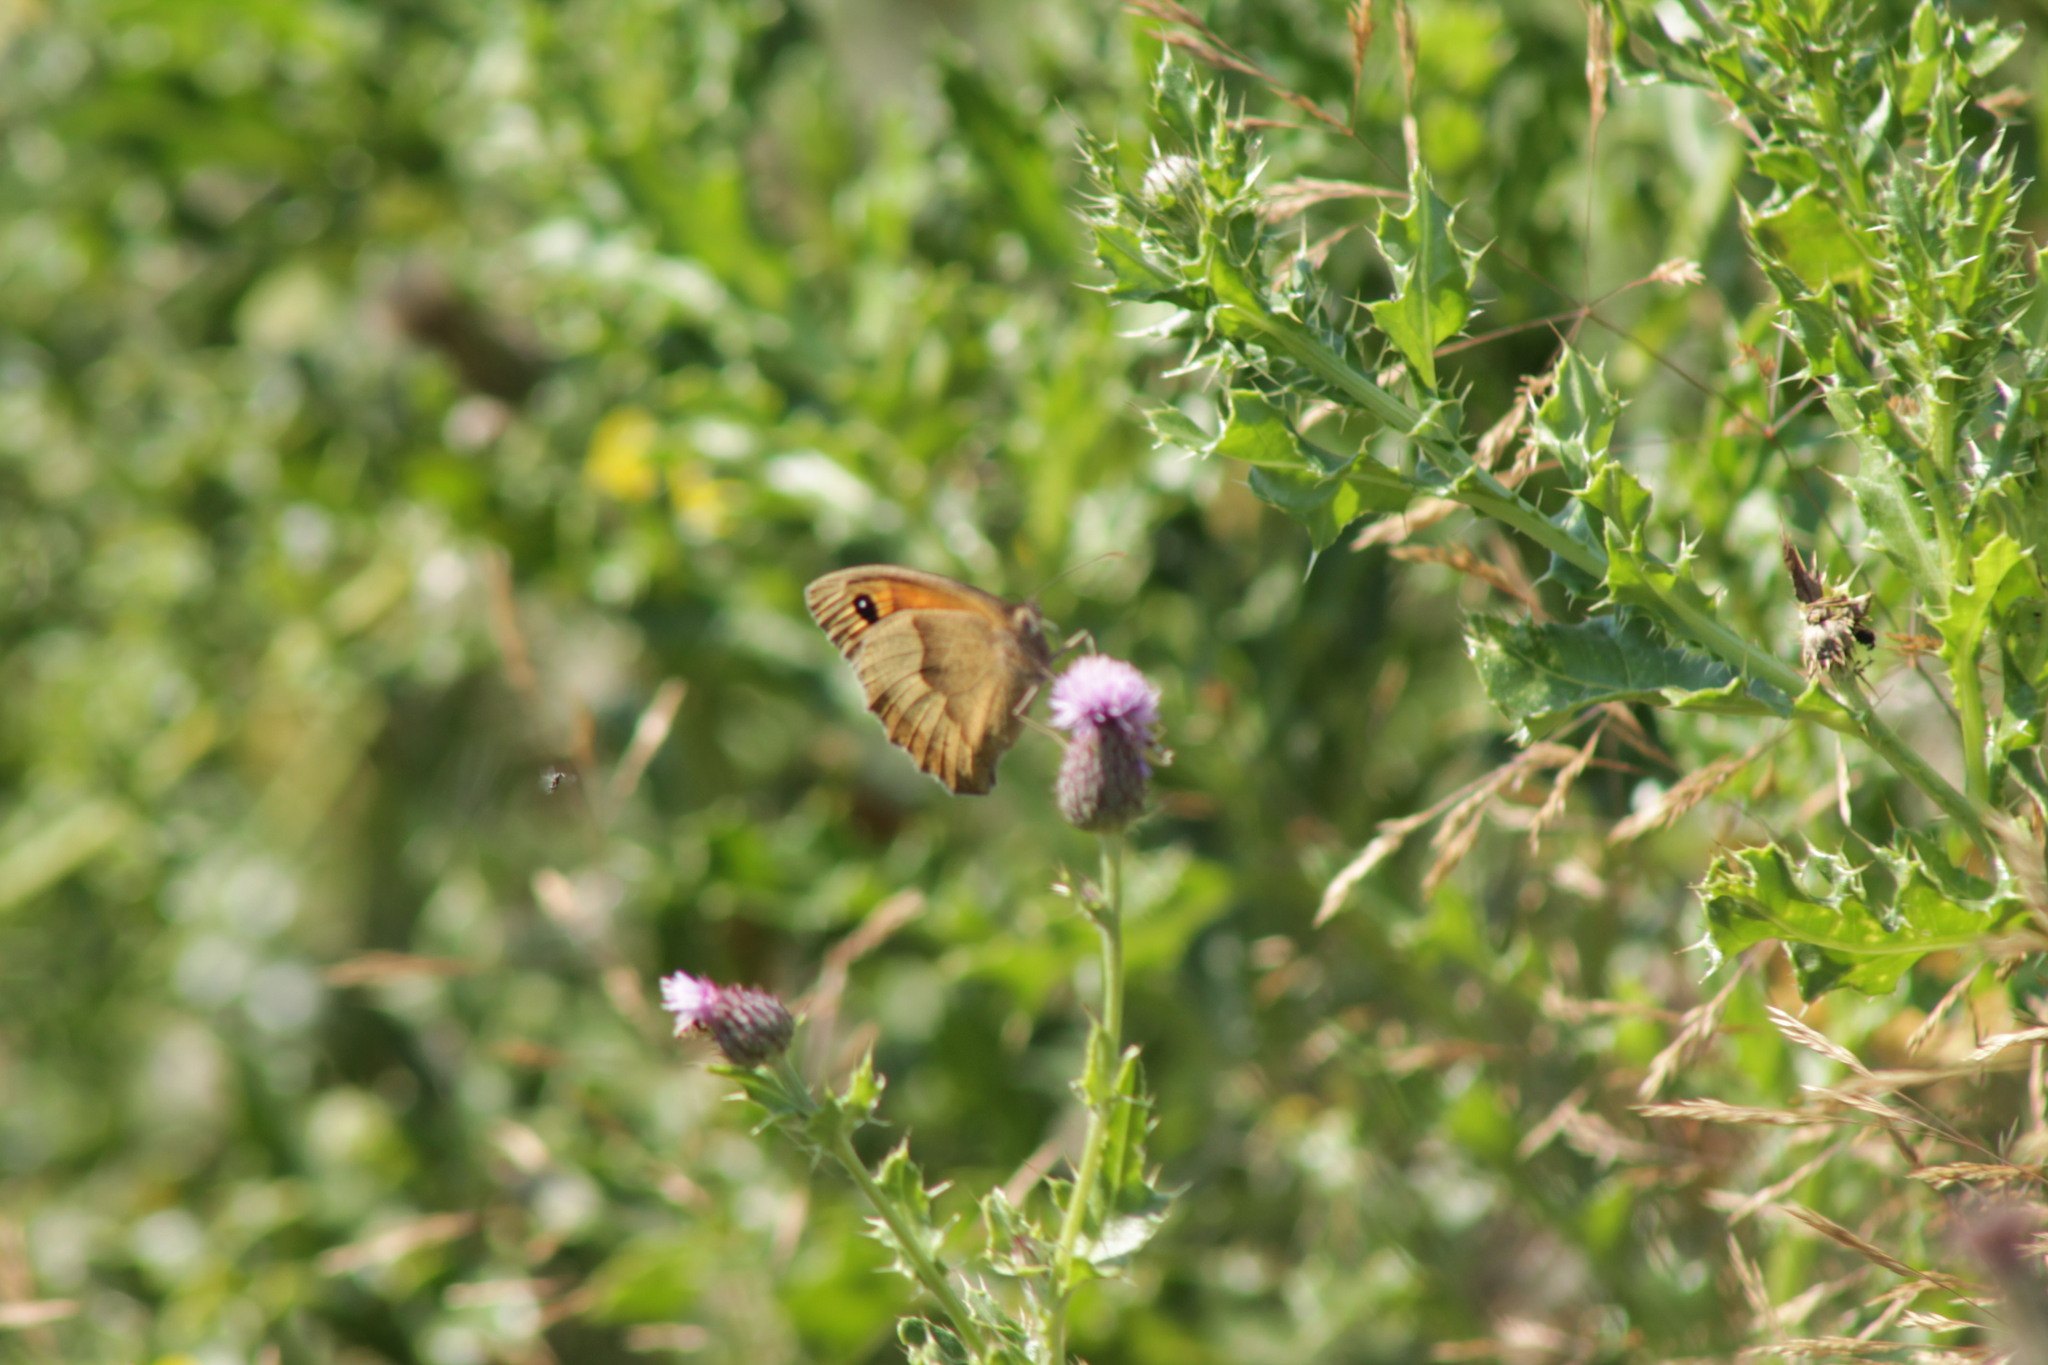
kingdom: Animalia
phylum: Arthropoda
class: Insecta
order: Lepidoptera
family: Nymphalidae
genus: Maniola
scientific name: Maniola jurtina
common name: Meadow brown
